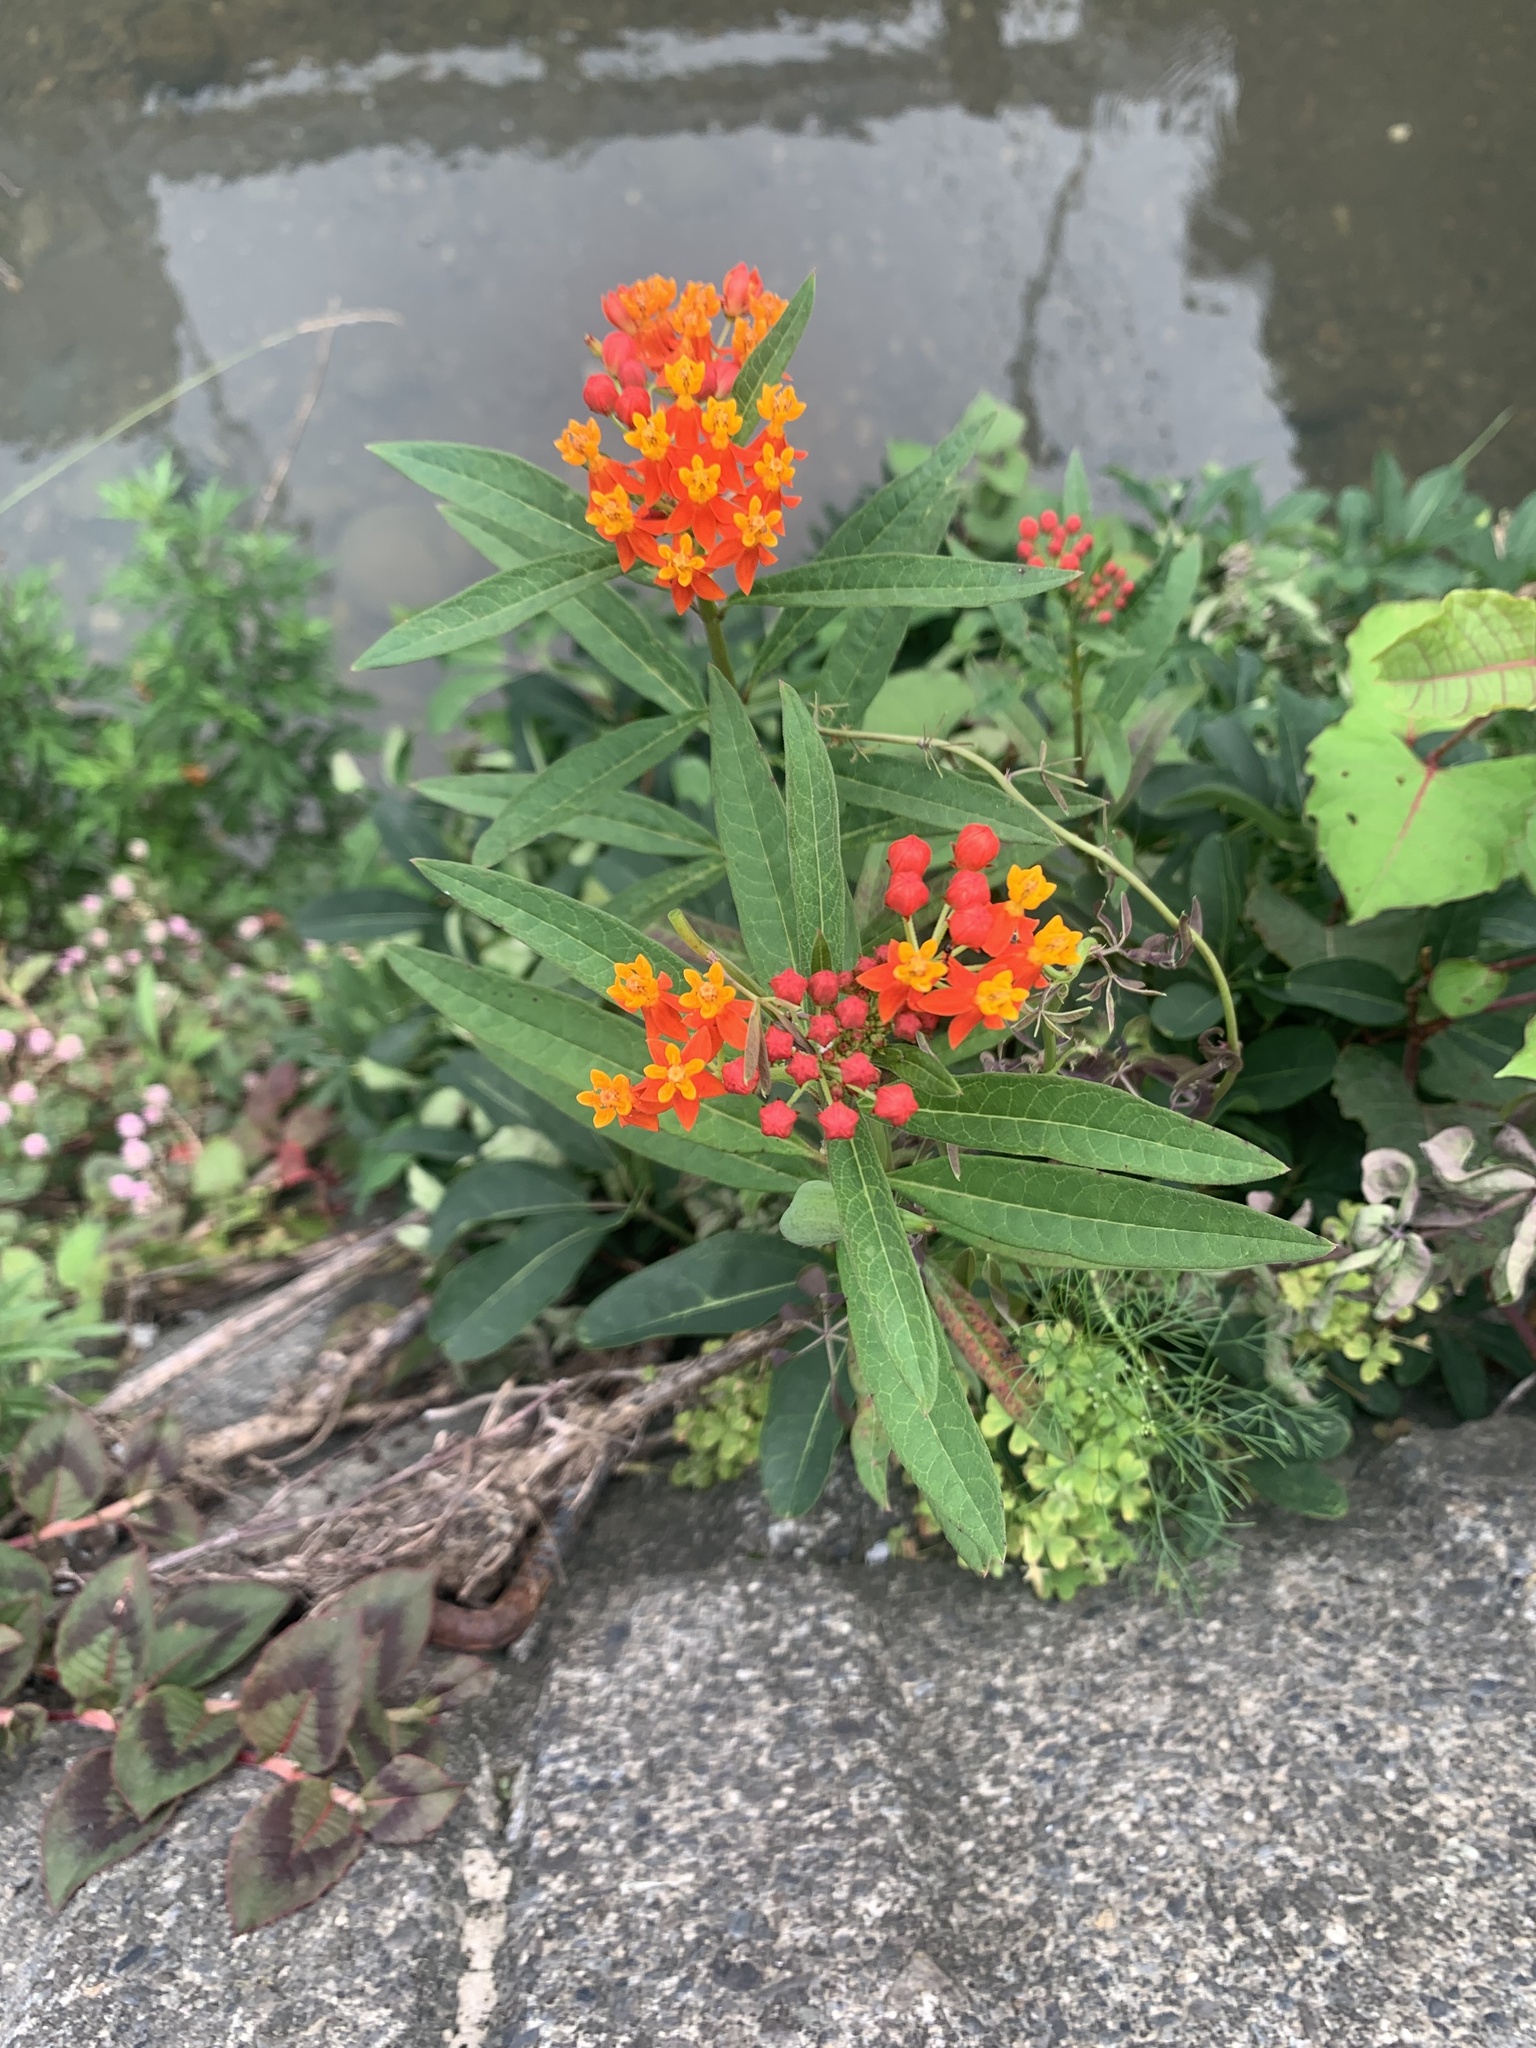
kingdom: Plantae
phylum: Tracheophyta
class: Magnoliopsida
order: Gentianales
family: Apocynaceae
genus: Asclepias
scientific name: Asclepias curassavica
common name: Bloodflower
